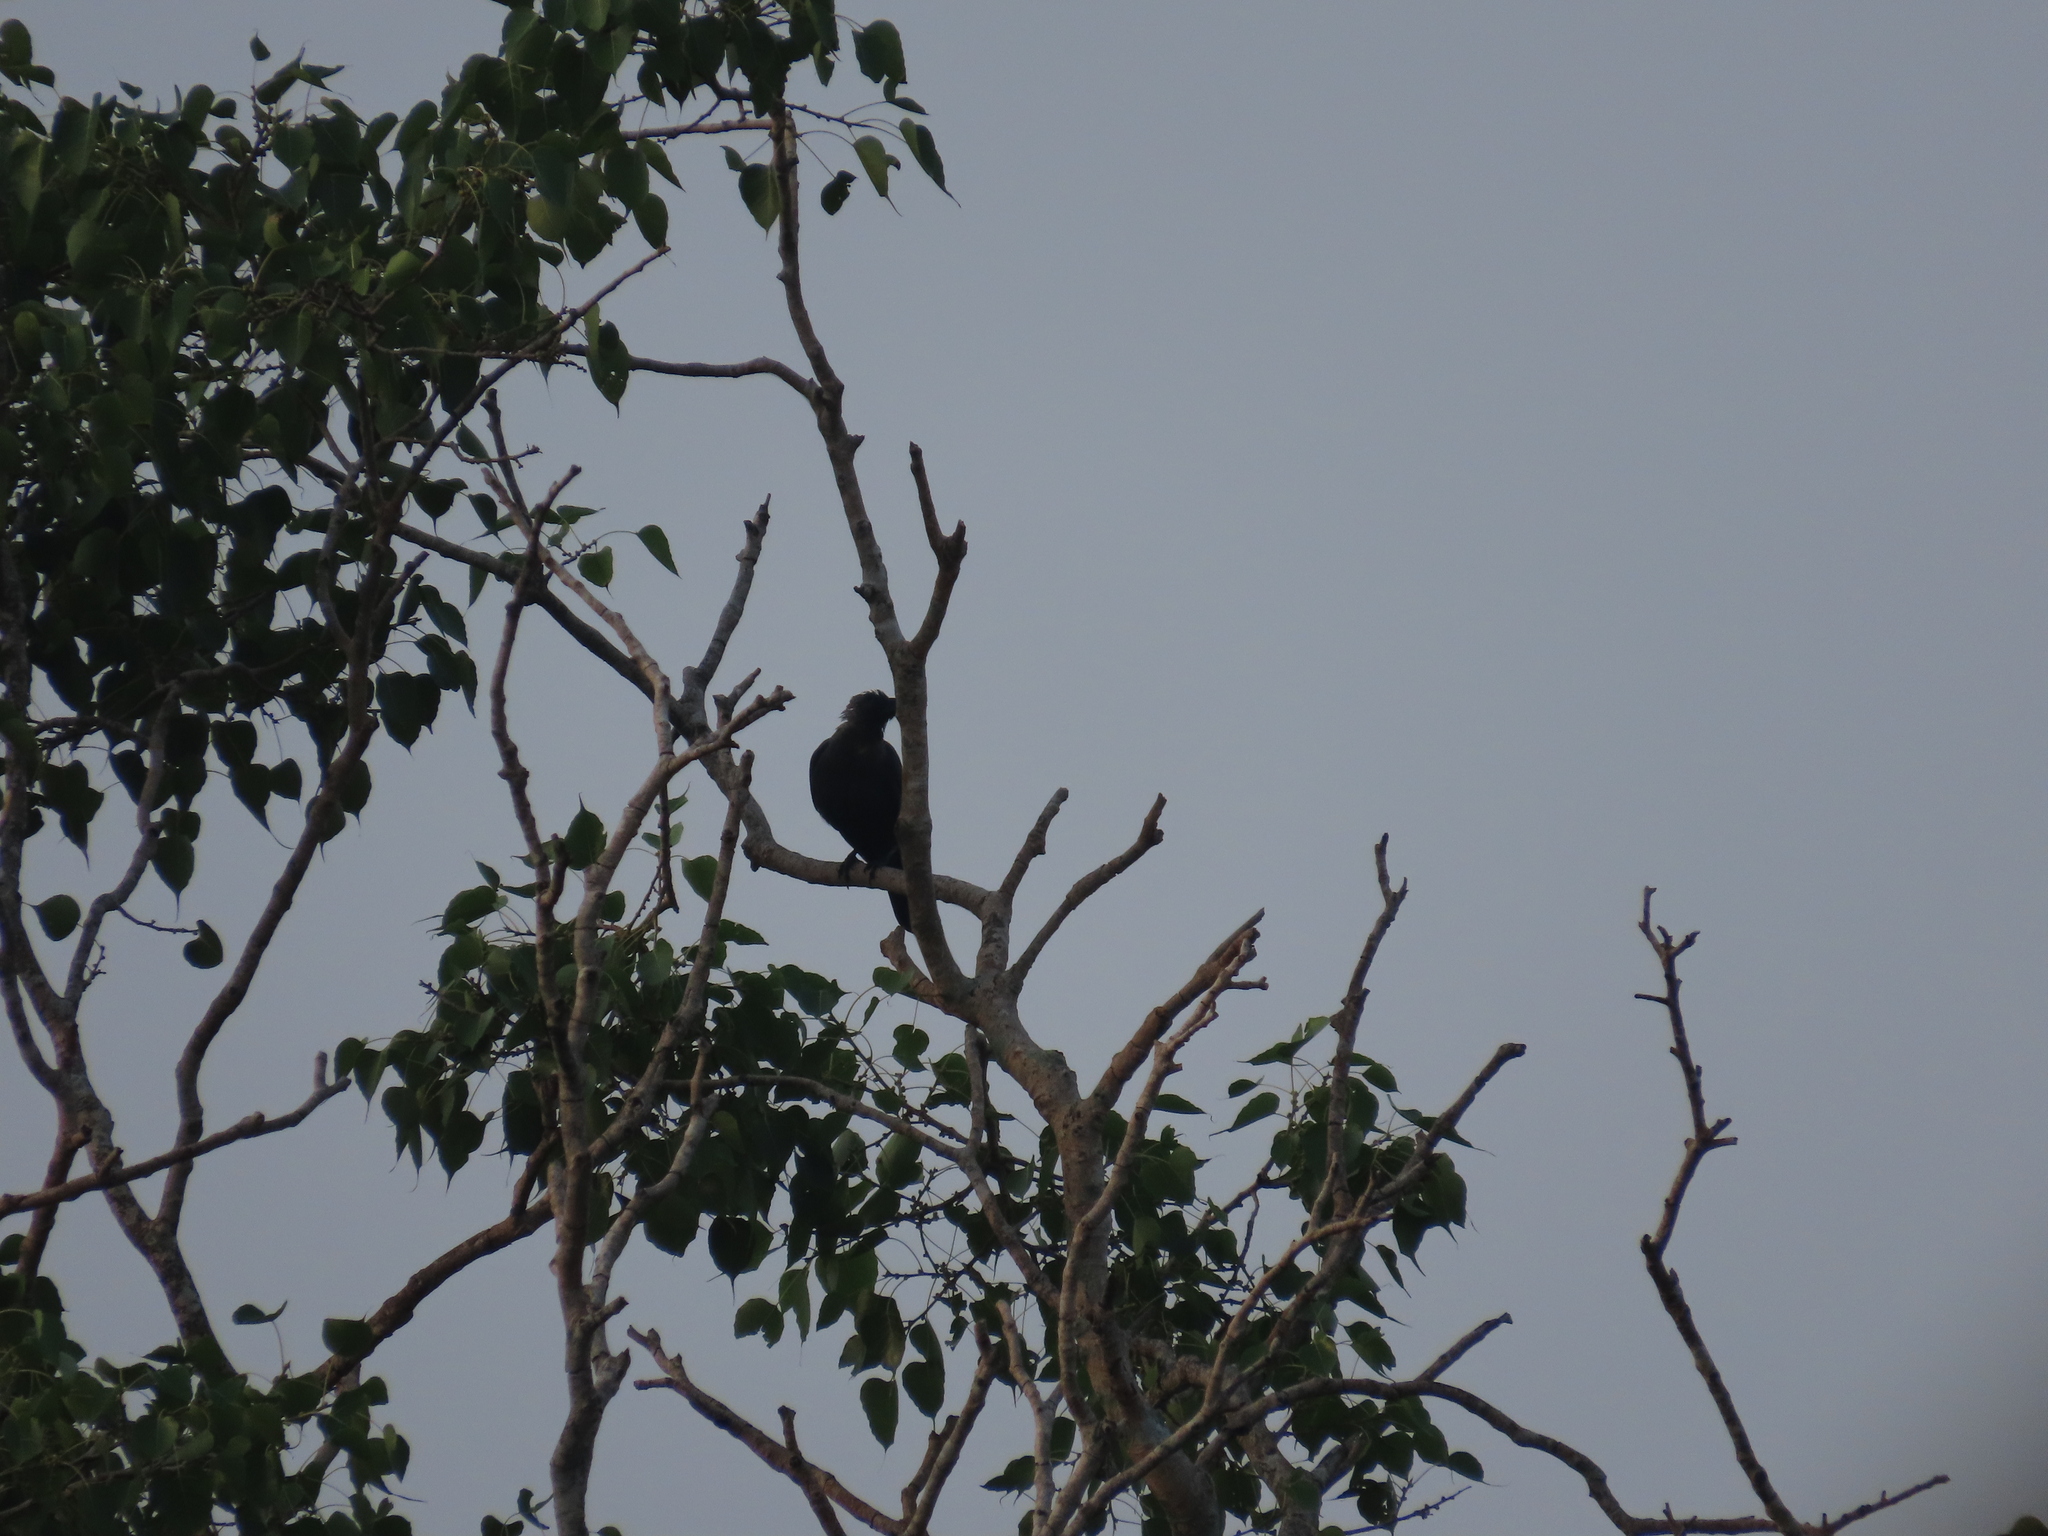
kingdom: Animalia
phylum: Chordata
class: Aves
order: Passeriformes
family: Corvidae
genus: Corvus
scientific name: Corvus splendens
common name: House crow
